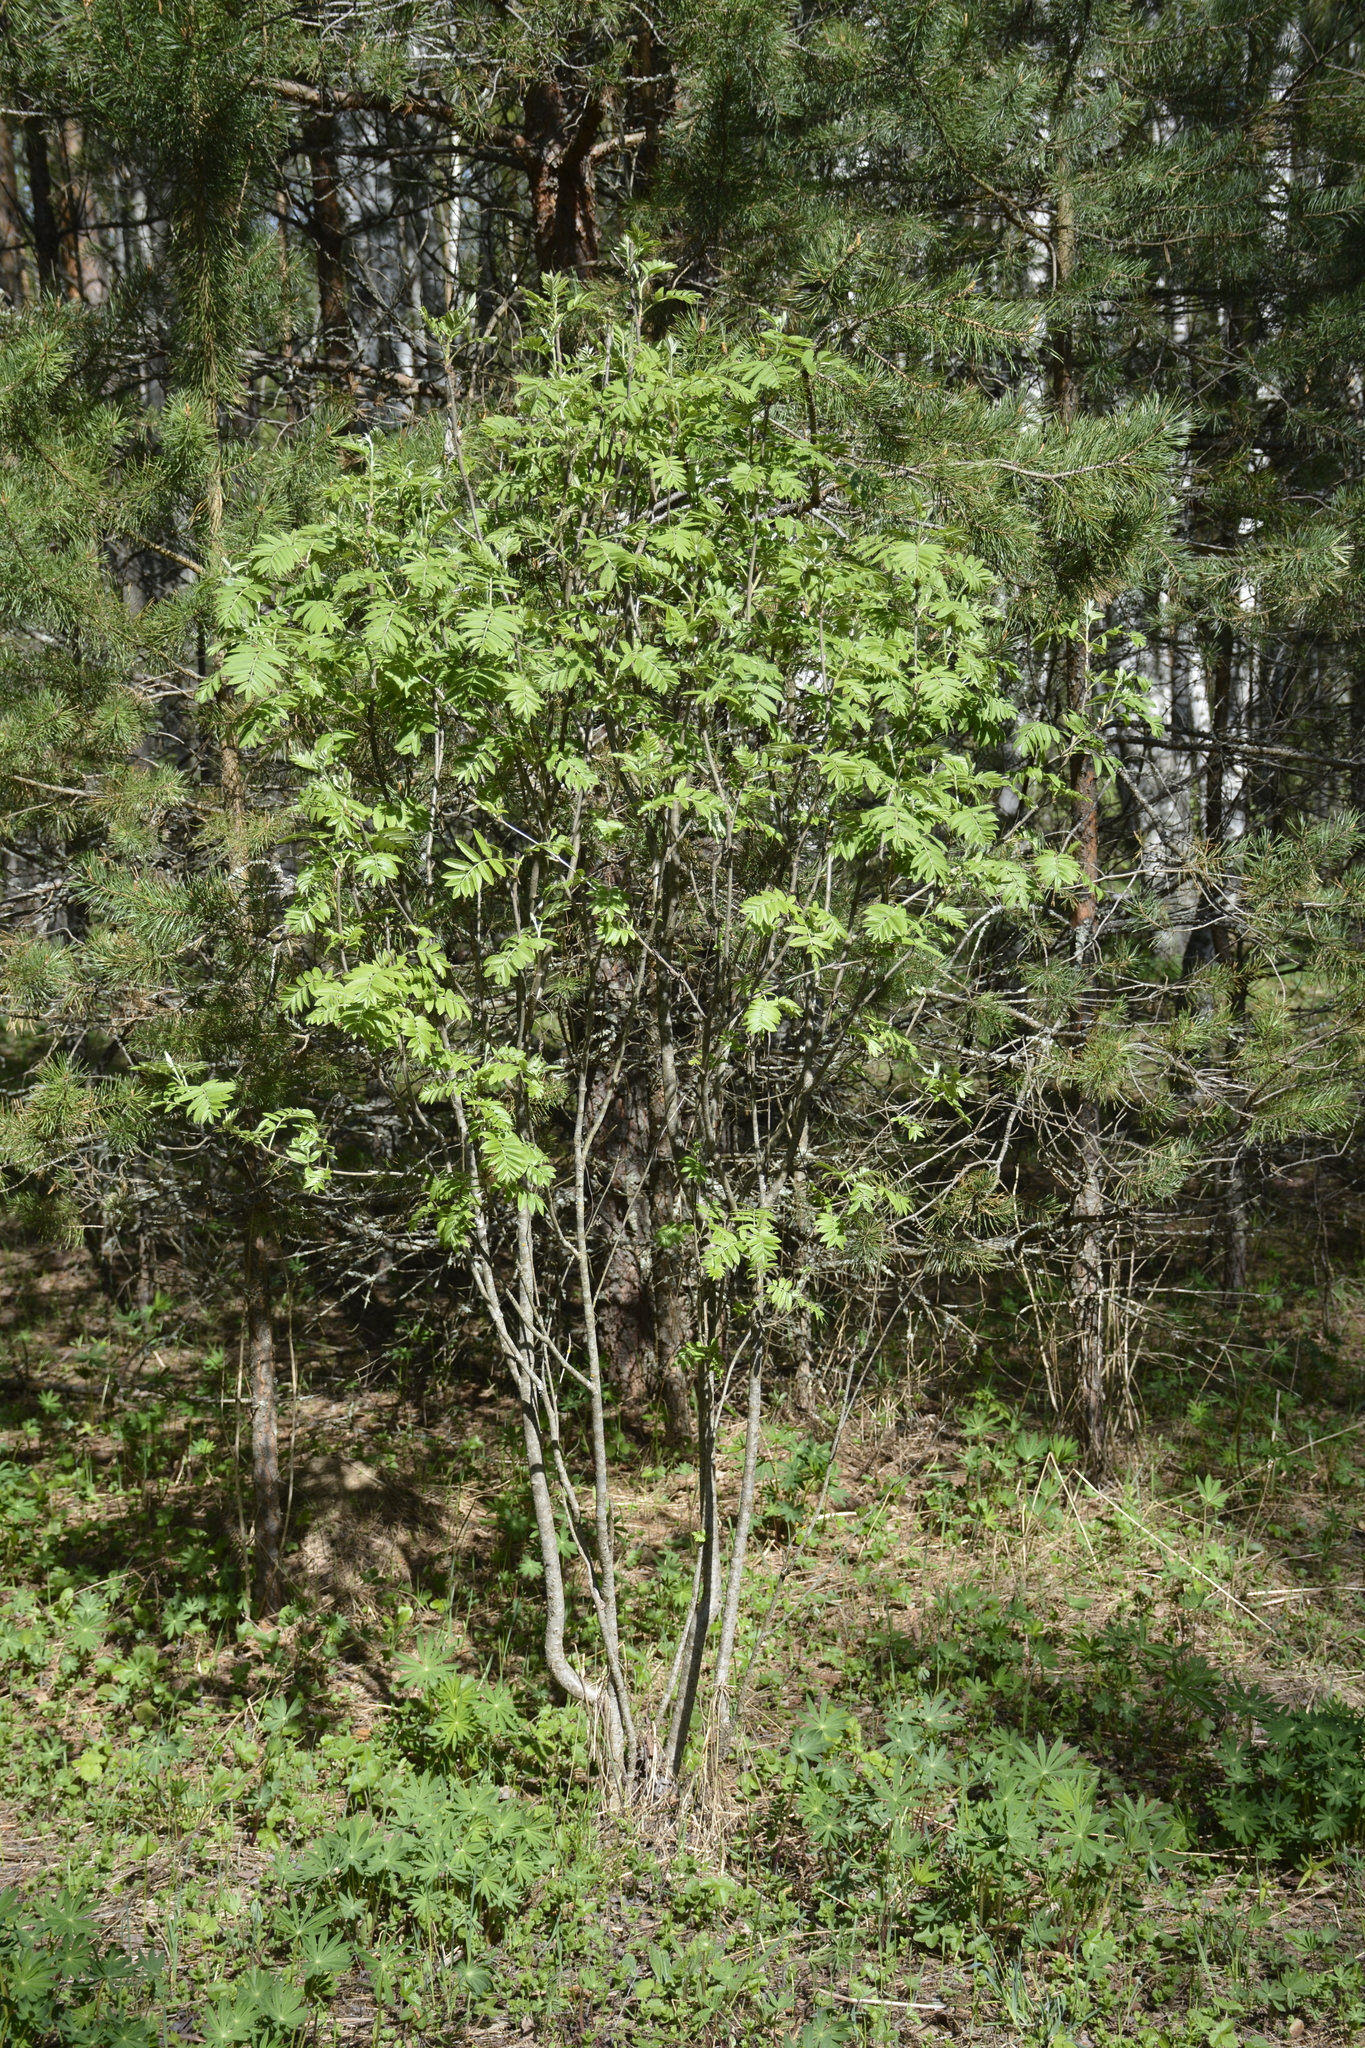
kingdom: Plantae
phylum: Tracheophyta
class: Magnoliopsida
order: Rosales
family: Rosaceae
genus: Sorbus
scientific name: Sorbus aucuparia
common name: Rowan
